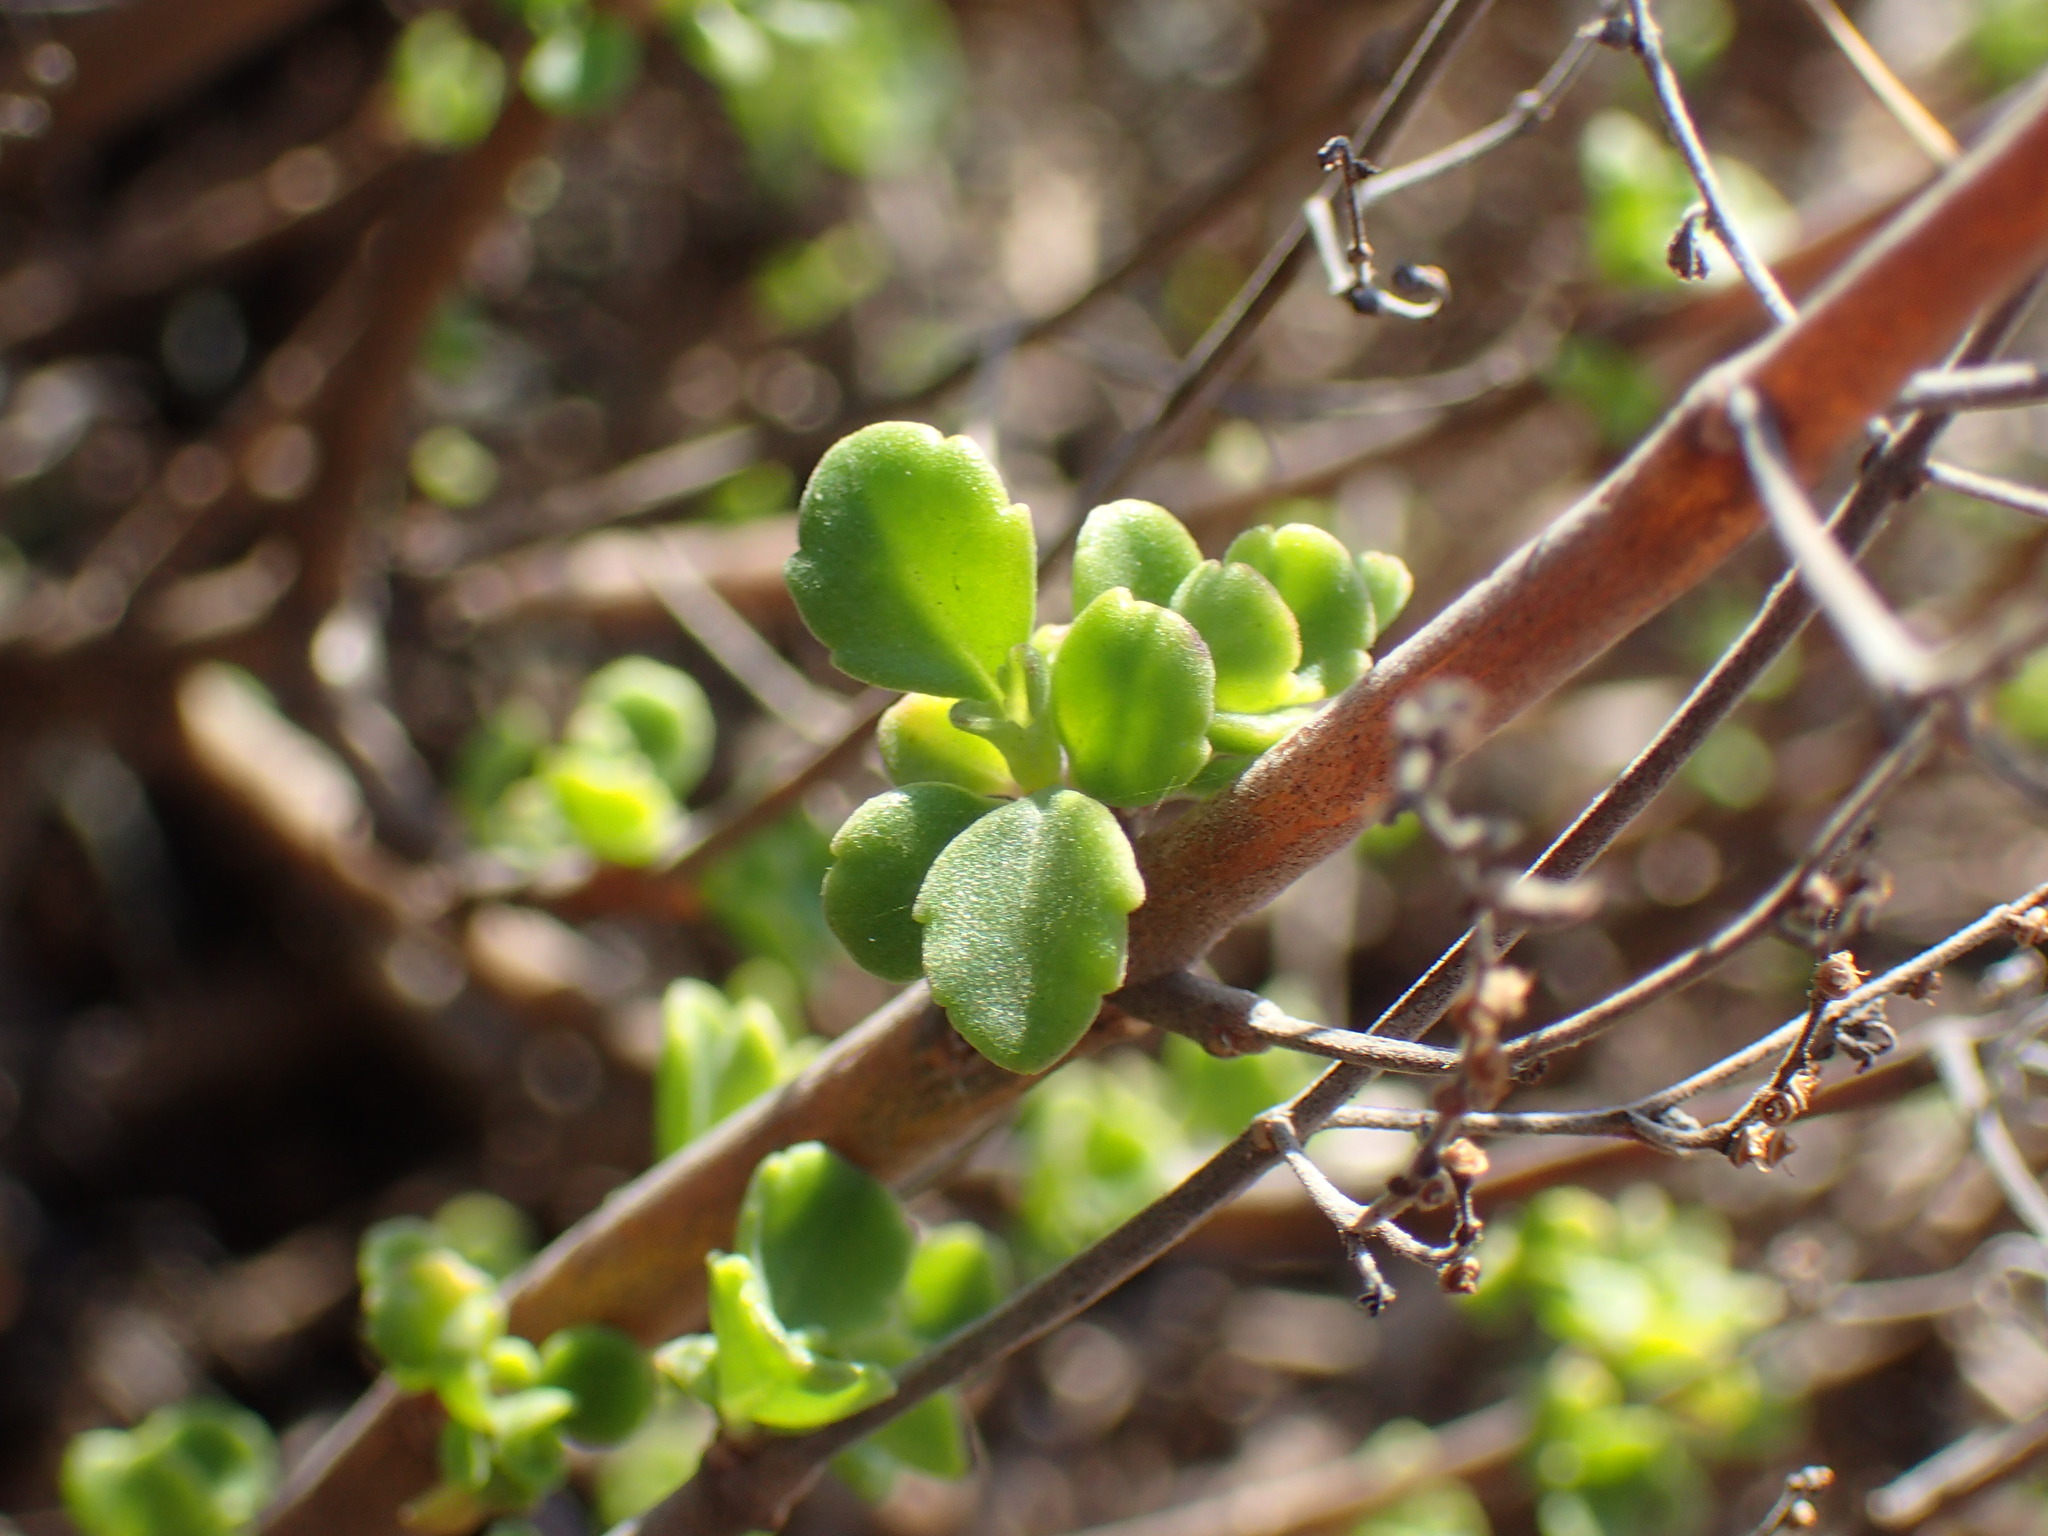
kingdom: Plantae
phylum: Tracheophyta
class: Magnoliopsida
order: Lamiales
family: Lamiaceae
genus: Aeollanthus
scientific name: Aeollanthus parvifolius
